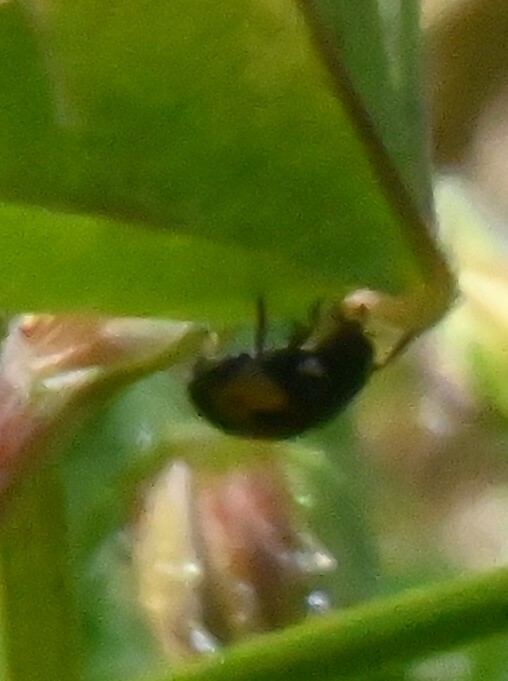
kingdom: Animalia
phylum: Arthropoda
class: Insecta
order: Coleoptera
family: Coccinellidae
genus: Ceratomegilla
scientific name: Ceratomegilla alpina
